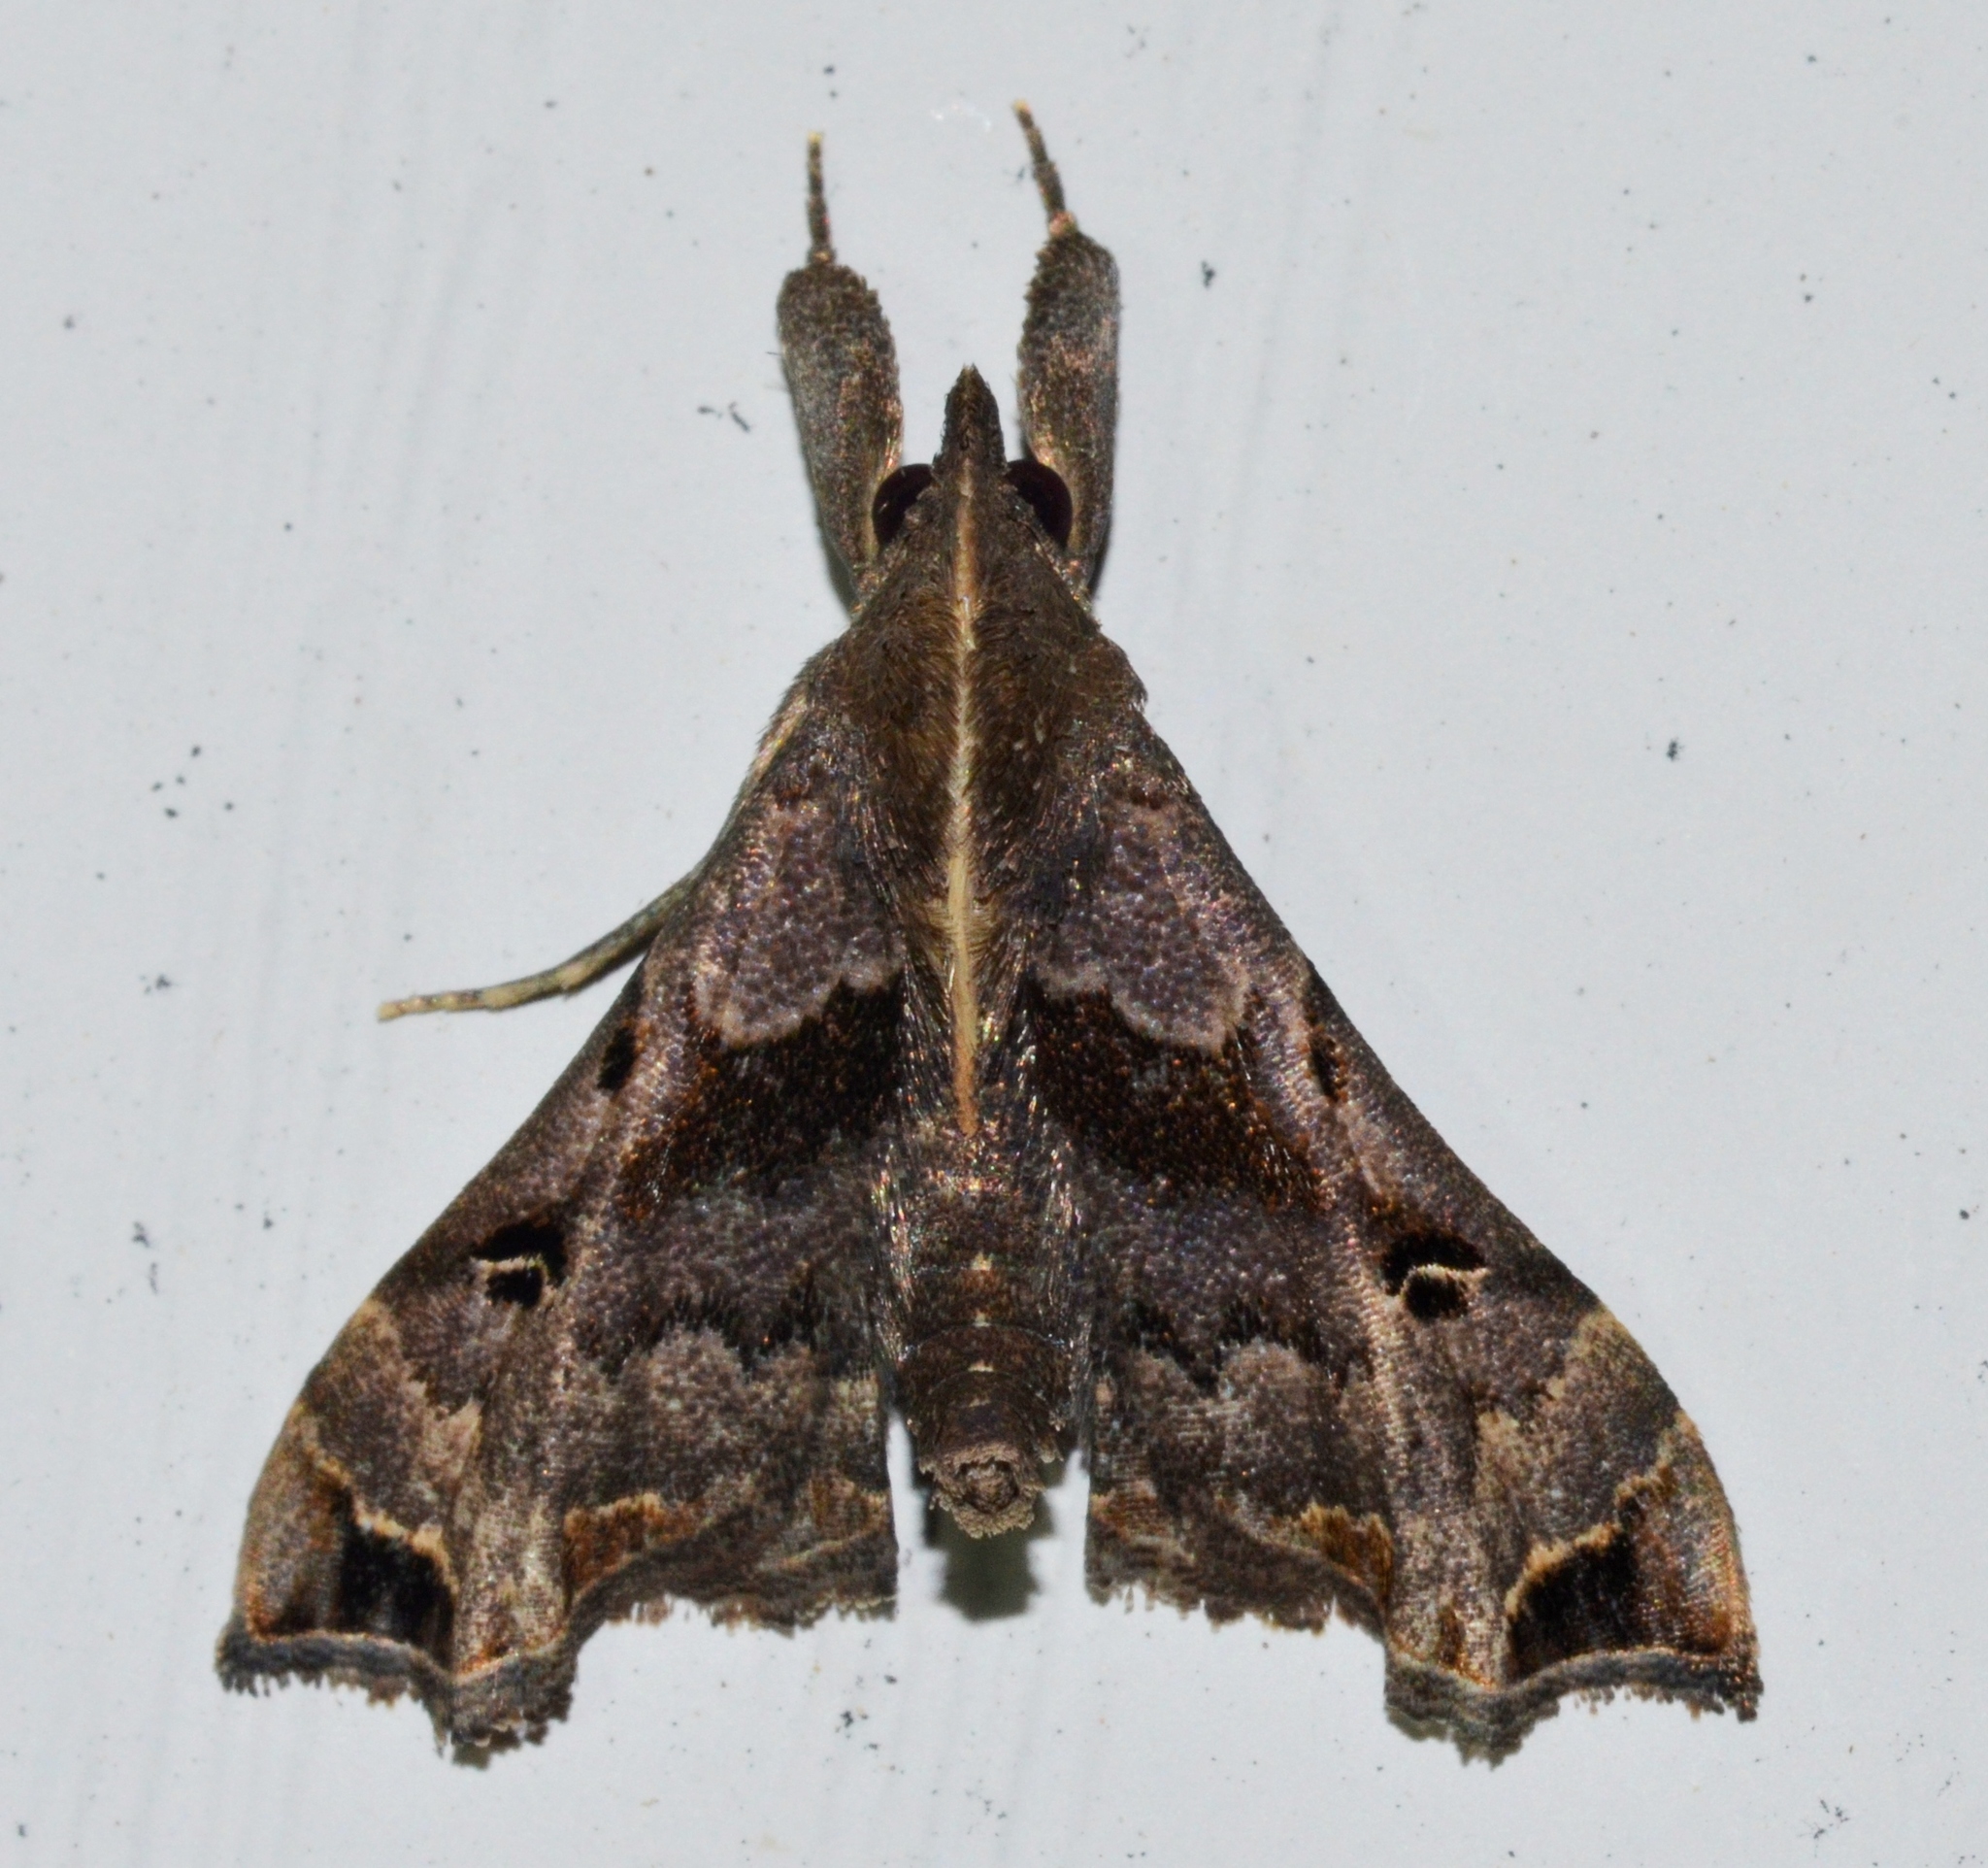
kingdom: Animalia
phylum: Arthropoda
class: Insecta
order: Lepidoptera
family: Erebidae
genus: Palthis
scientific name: Palthis asopialis
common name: Faint-spotted palthis moth
